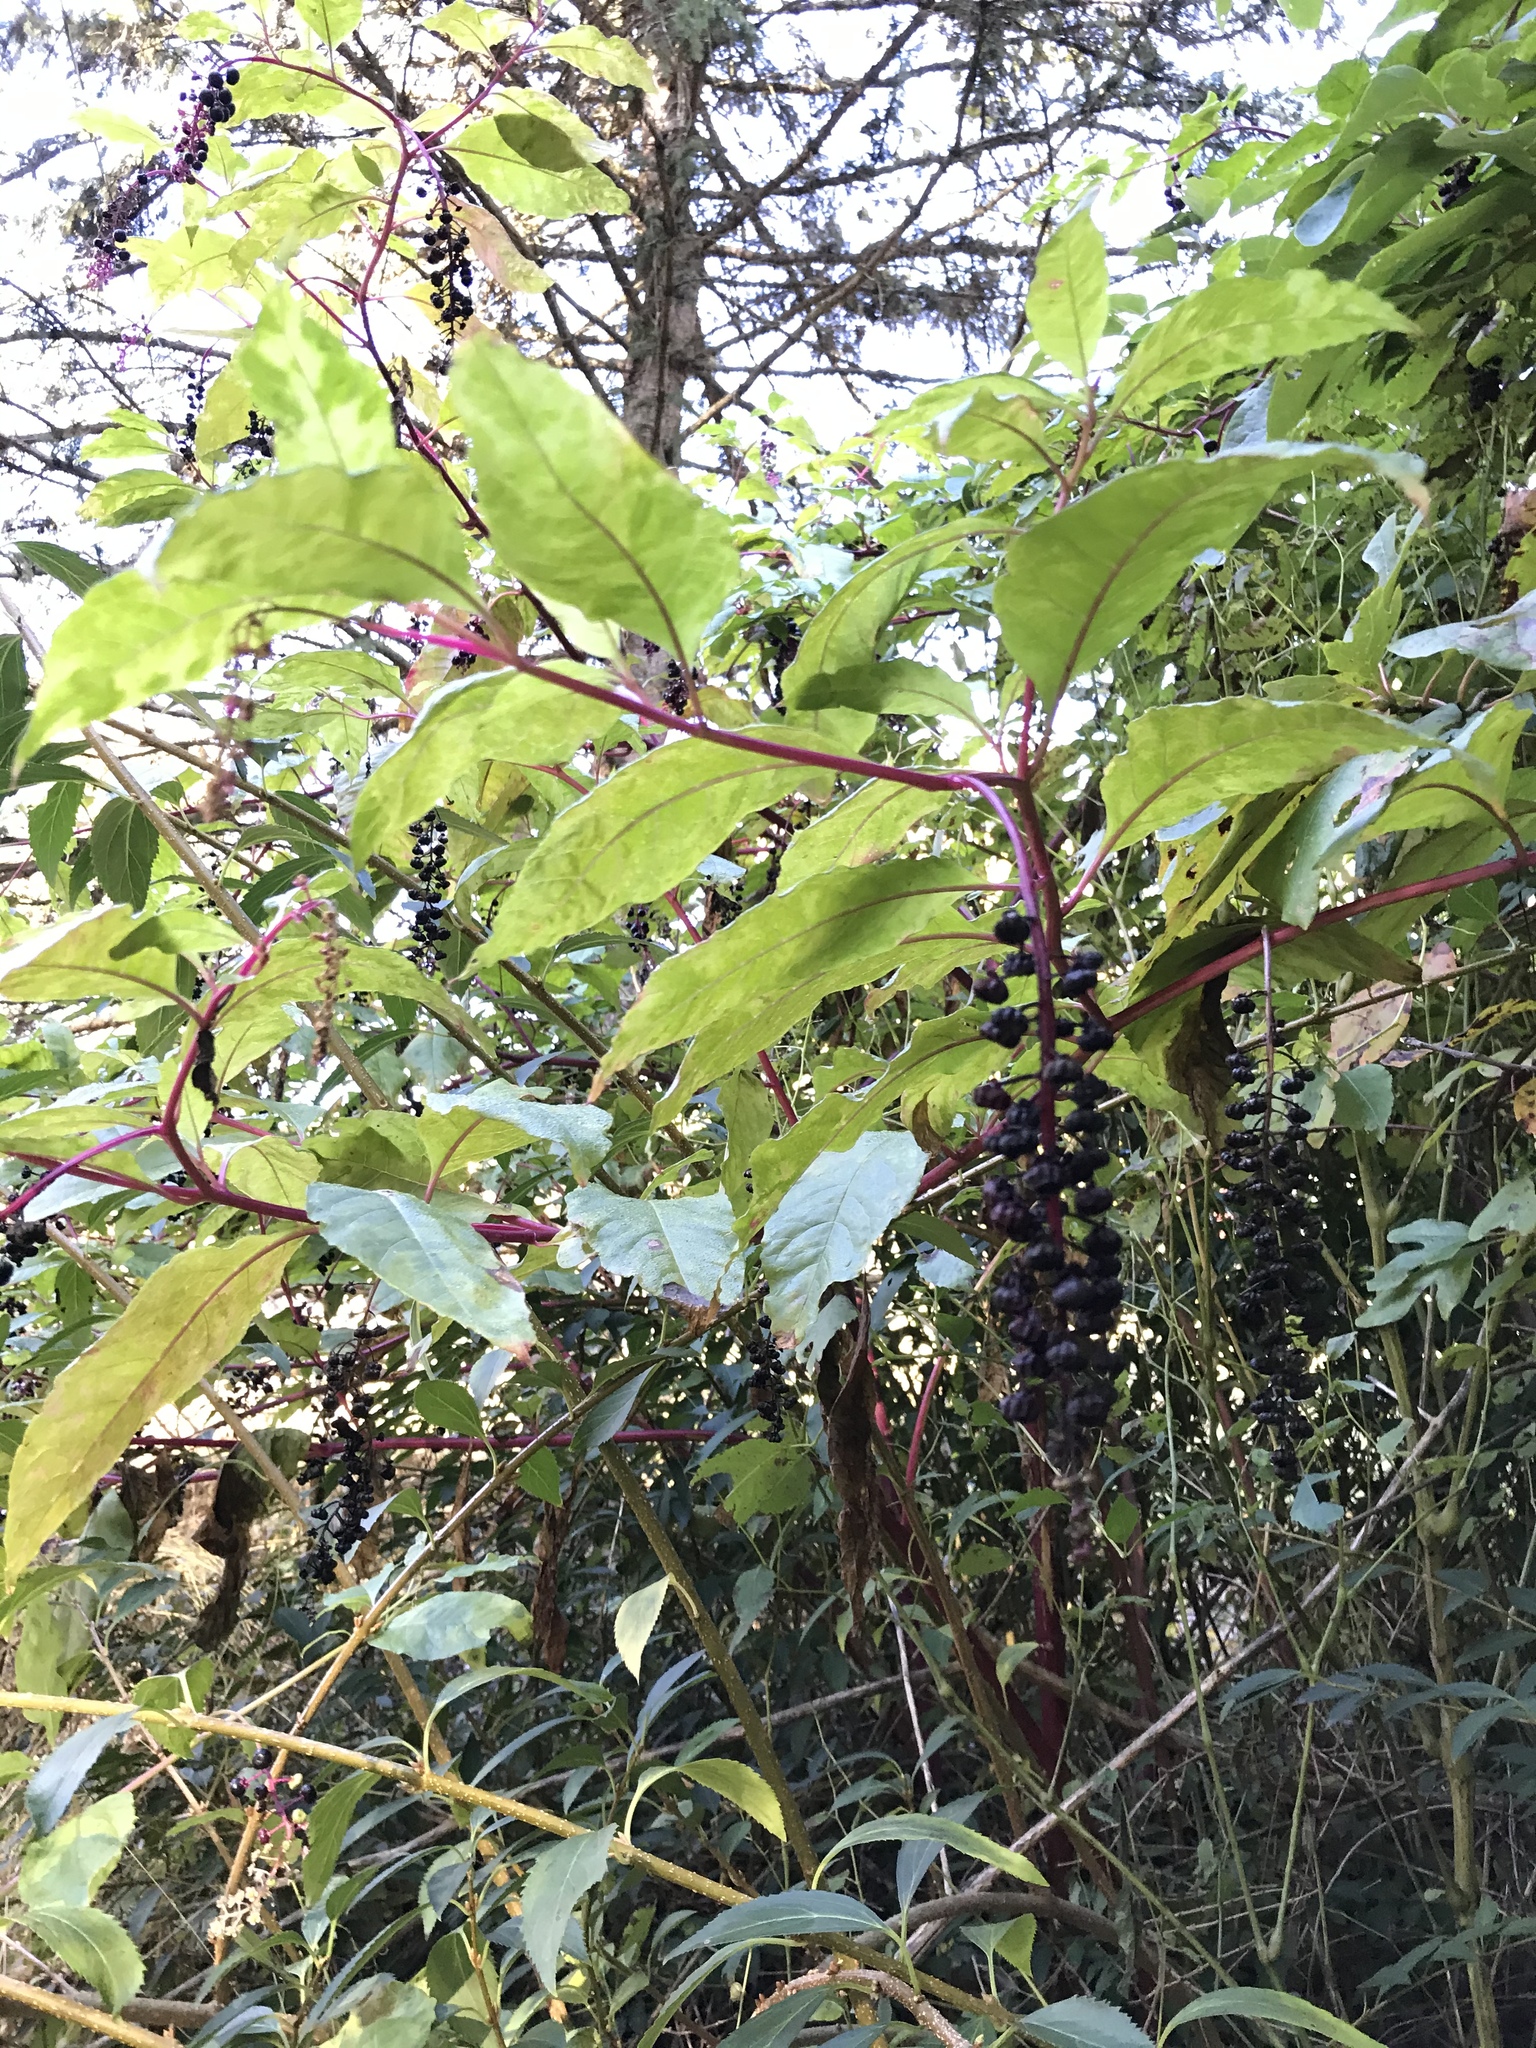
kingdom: Plantae
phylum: Tracheophyta
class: Magnoliopsida
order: Caryophyllales
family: Phytolaccaceae
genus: Phytolacca
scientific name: Phytolacca americana
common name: American pokeweed
